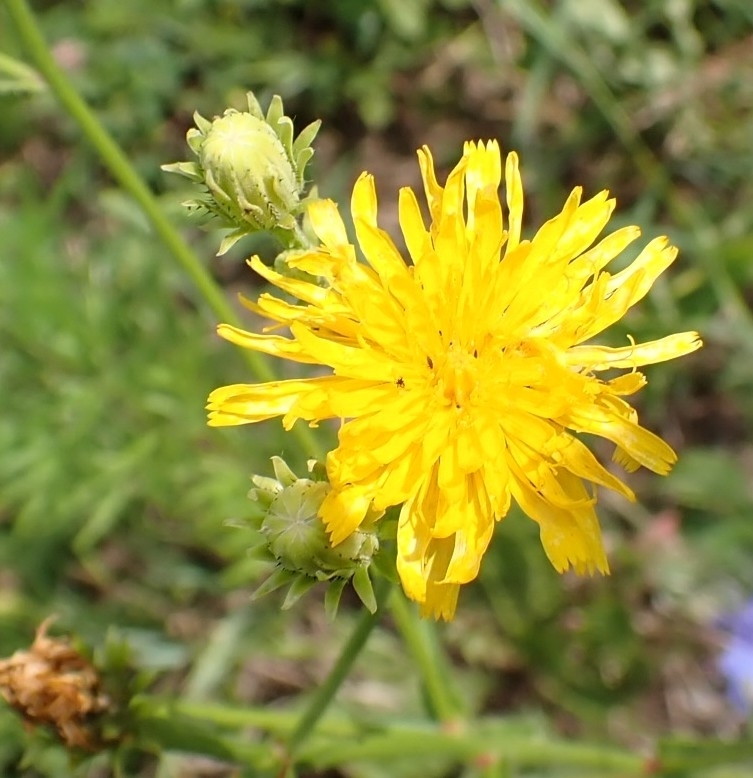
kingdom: Plantae
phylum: Tracheophyta
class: Magnoliopsida
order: Asterales
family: Asteraceae
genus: Picris
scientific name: Picris hieracioides
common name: Hawkweed oxtongue
